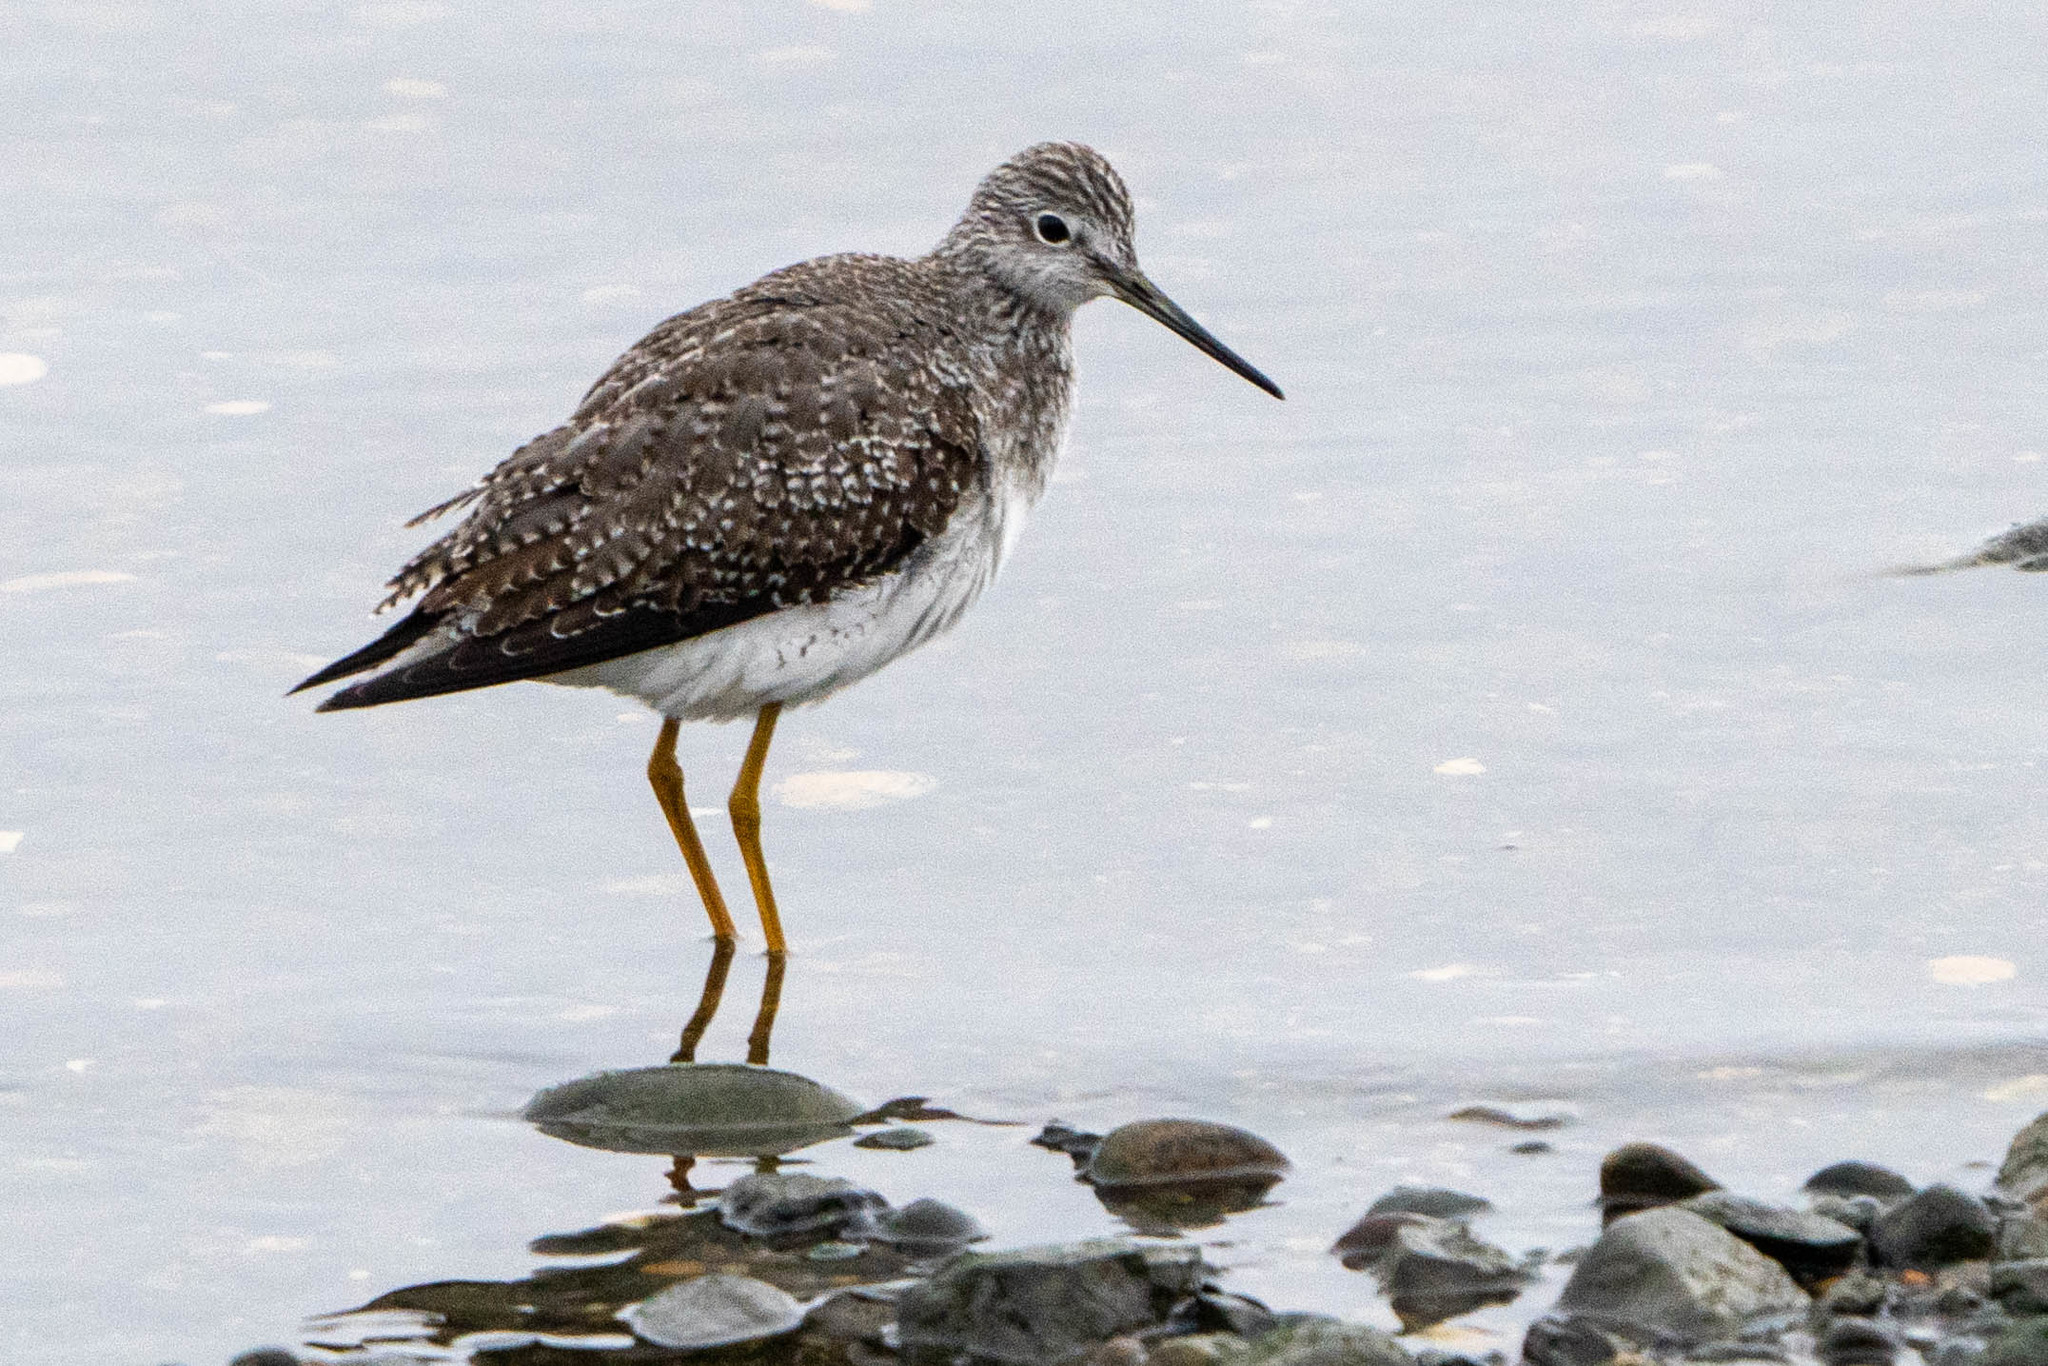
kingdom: Animalia
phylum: Chordata
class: Aves
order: Charadriiformes
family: Scolopacidae
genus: Tringa
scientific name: Tringa melanoleuca
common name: Greater yellowlegs
